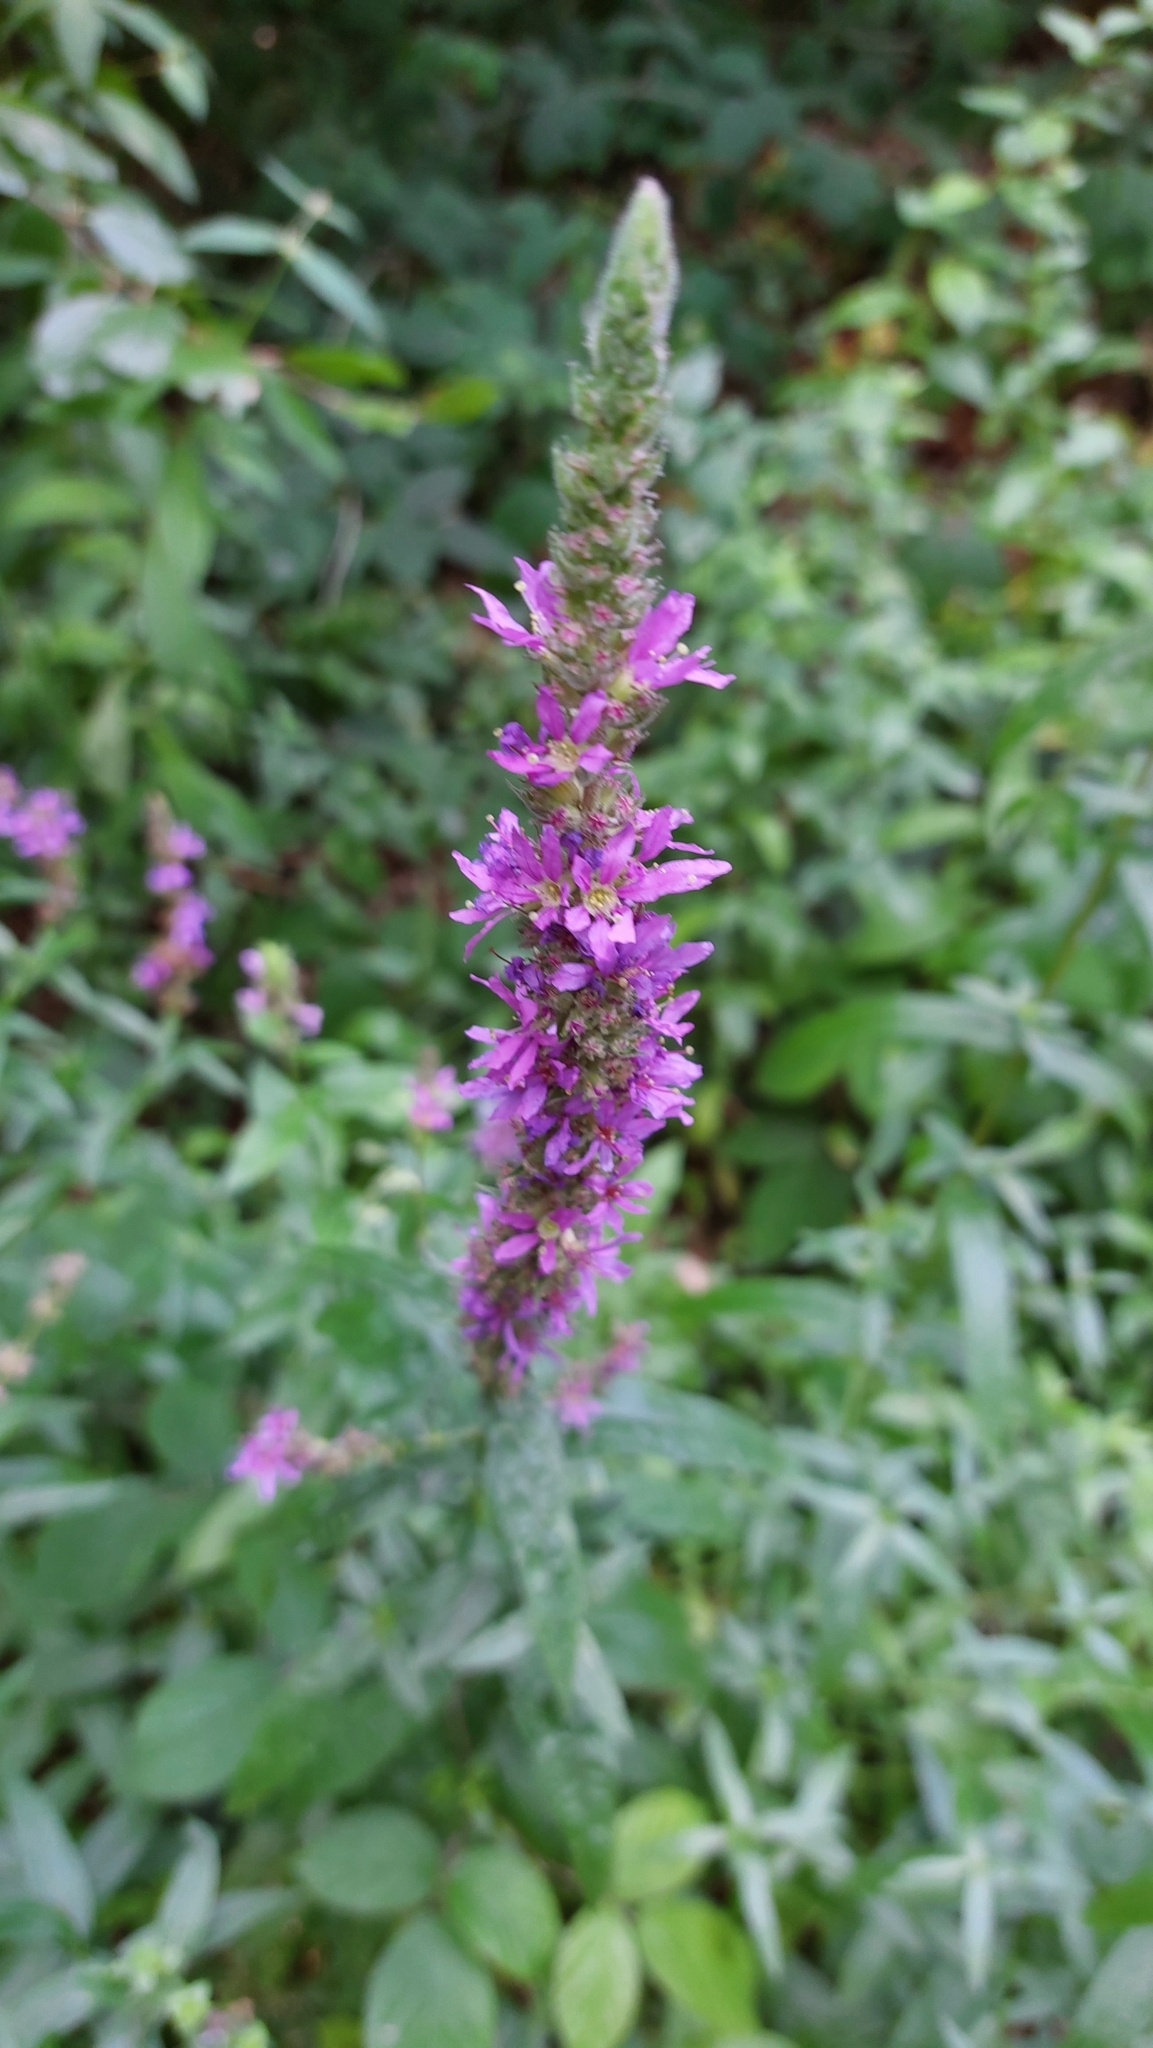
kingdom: Plantae
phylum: Tracheophyta
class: Magnoliopsida
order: Myrtales
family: Lythraceae
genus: Lythrum
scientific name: Lythrum salicaria
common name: Purple loosestrife
